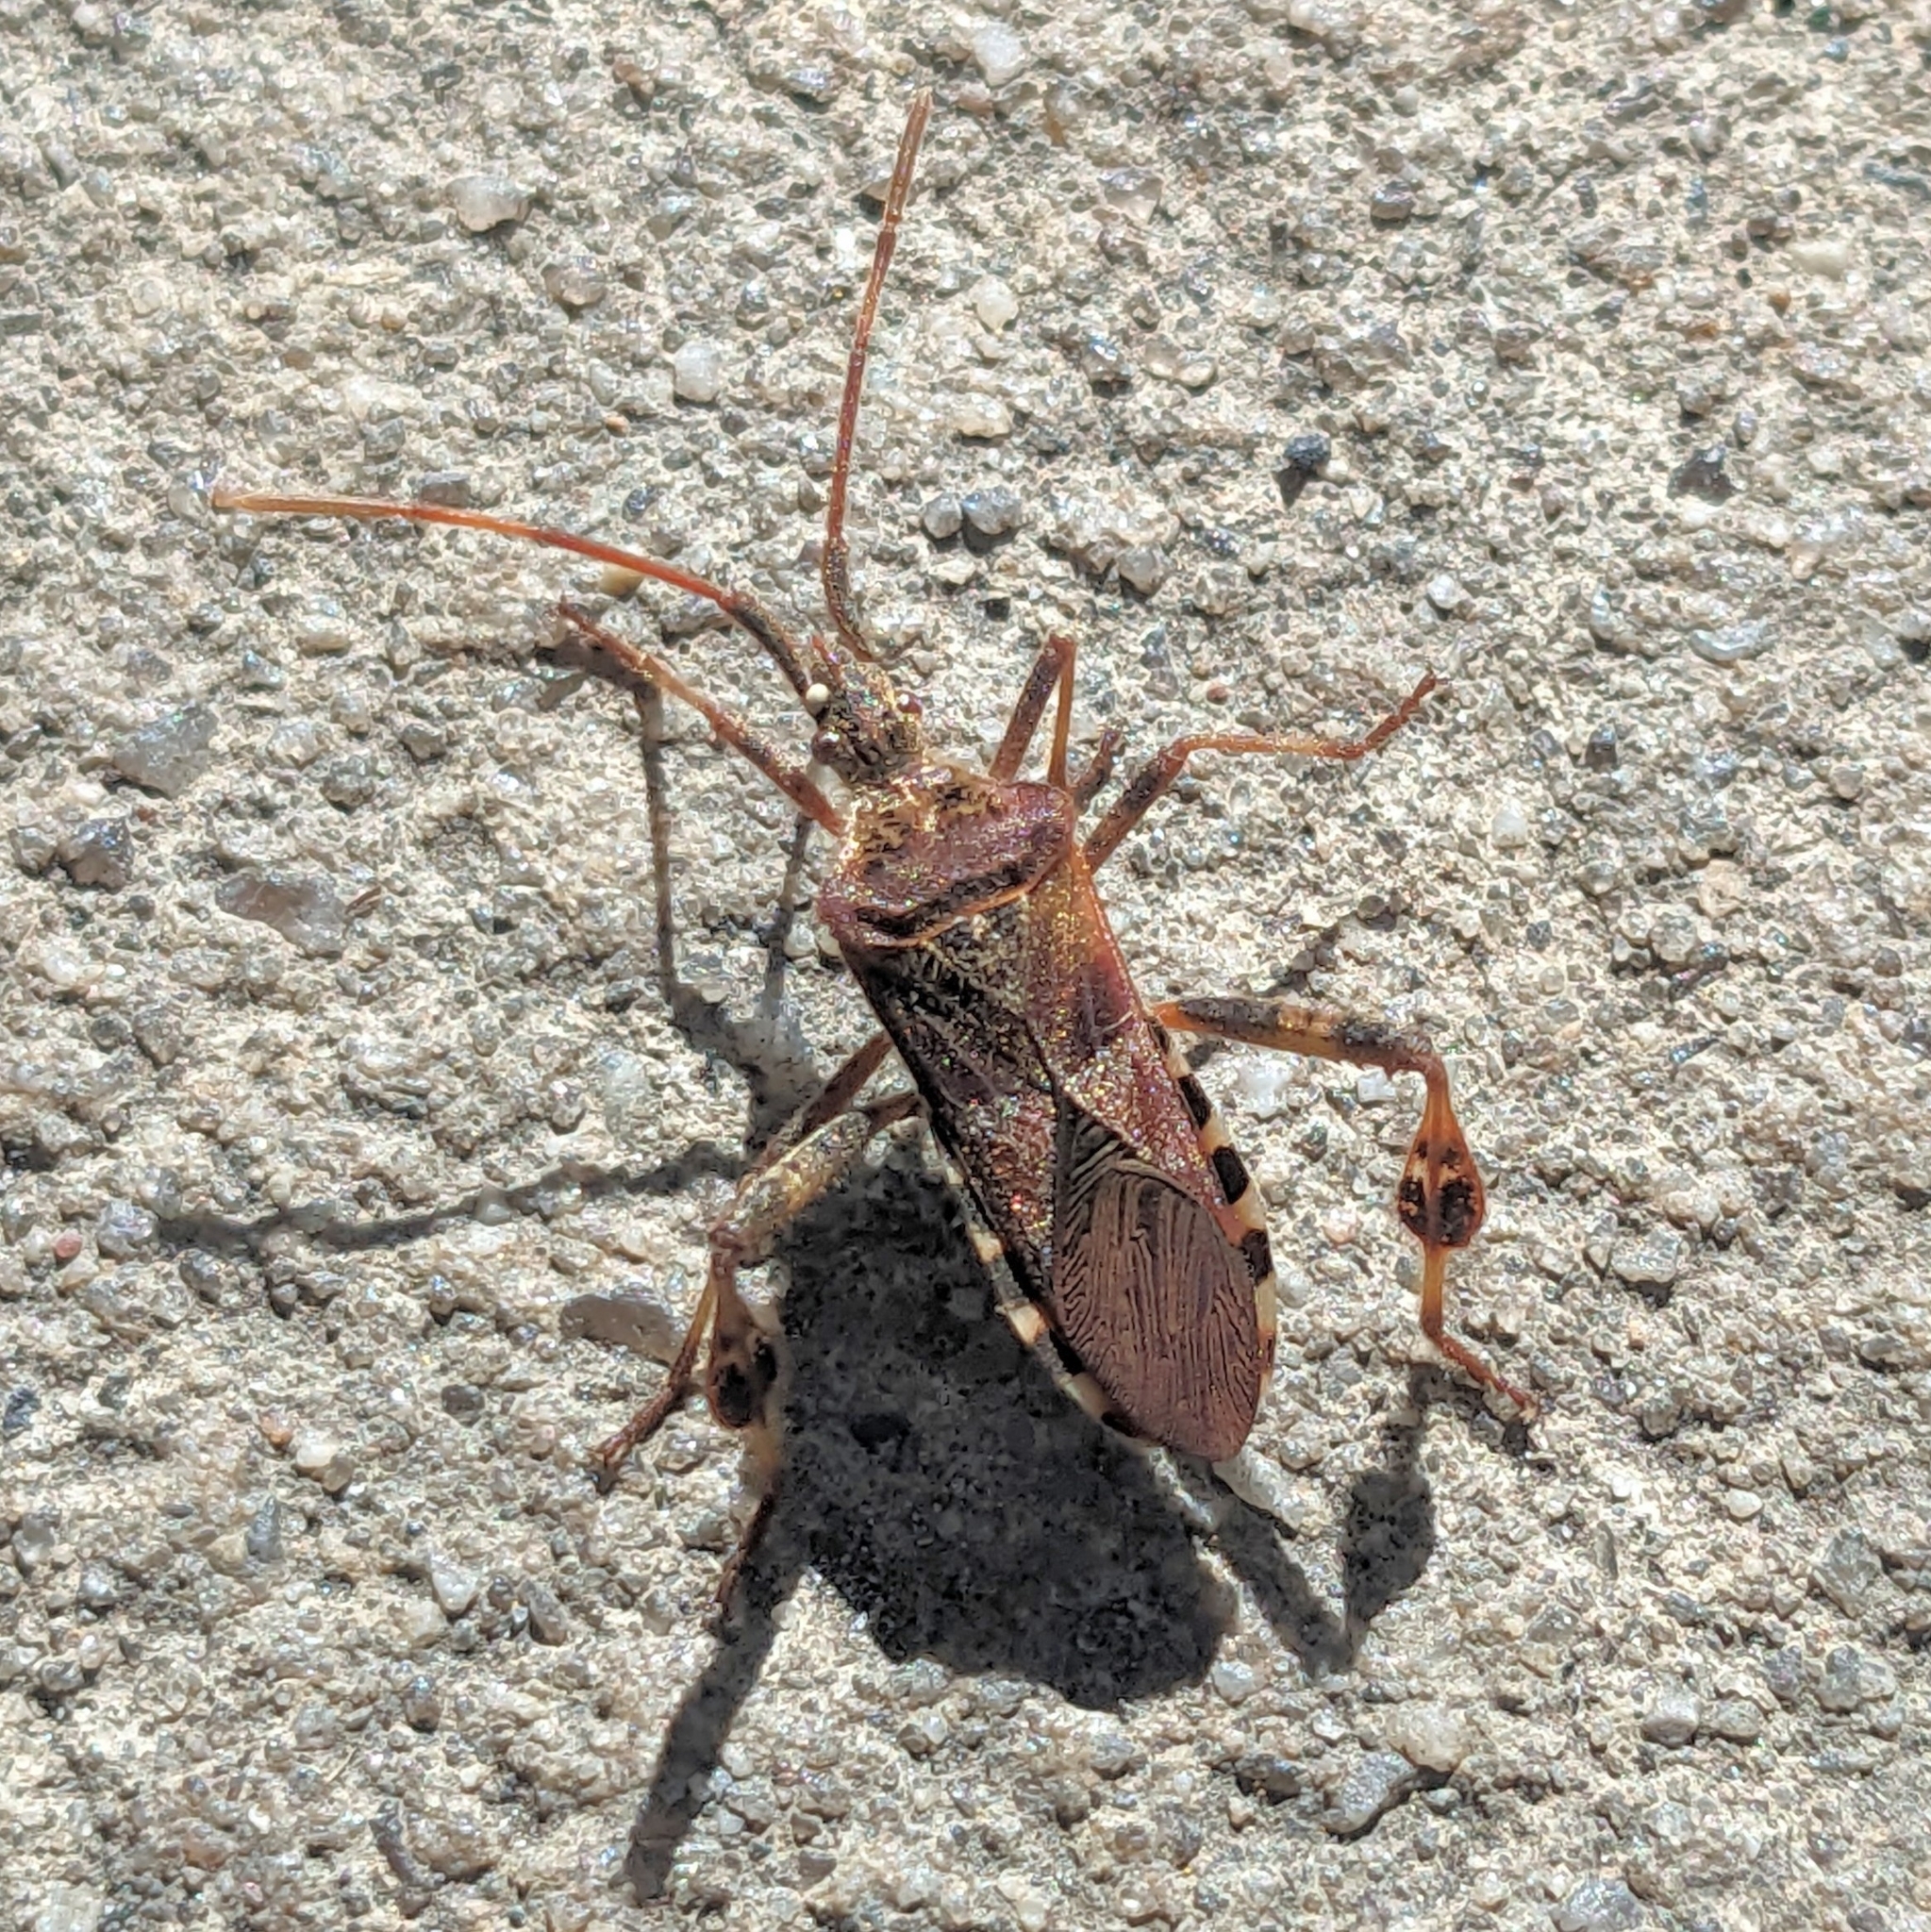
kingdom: Animalia
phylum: Arthropoda
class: Insecta
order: Hemiptera
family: Coreidae
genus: Leptoglossus
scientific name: Leptoglossus occidentalis
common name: Western conifer-seed bug
